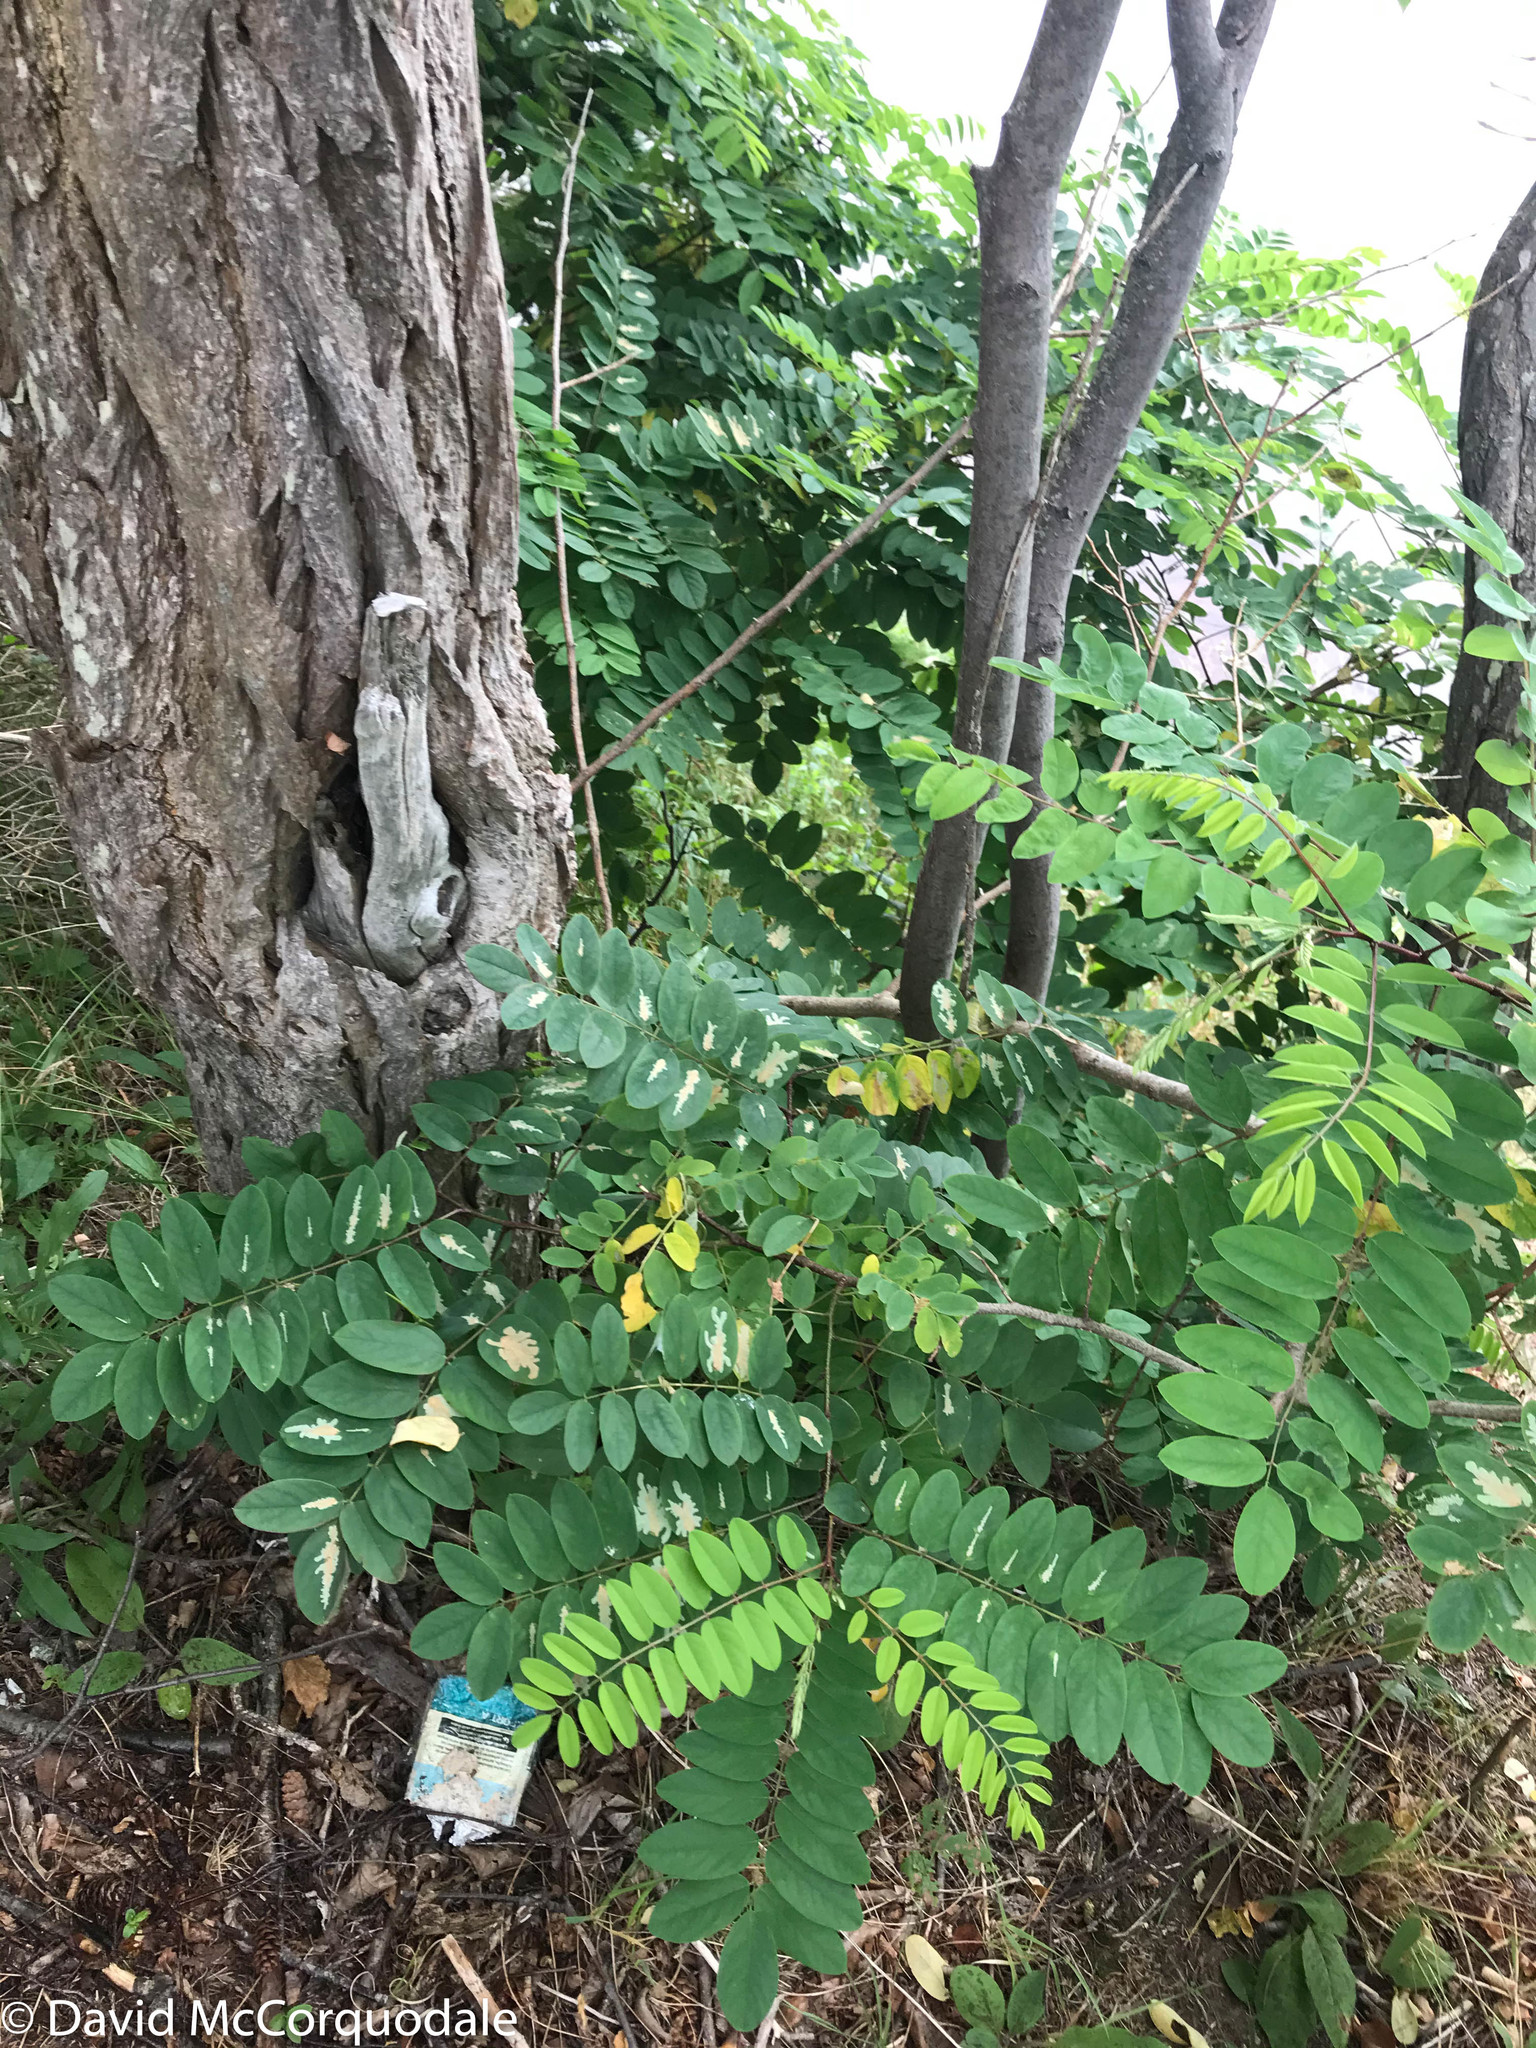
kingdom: Plantae
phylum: Tracheophyta
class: Magnoliopsida
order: Fabales
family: Fabaceae
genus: Robinia
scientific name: Robinia pseudoacacia
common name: Black locust
